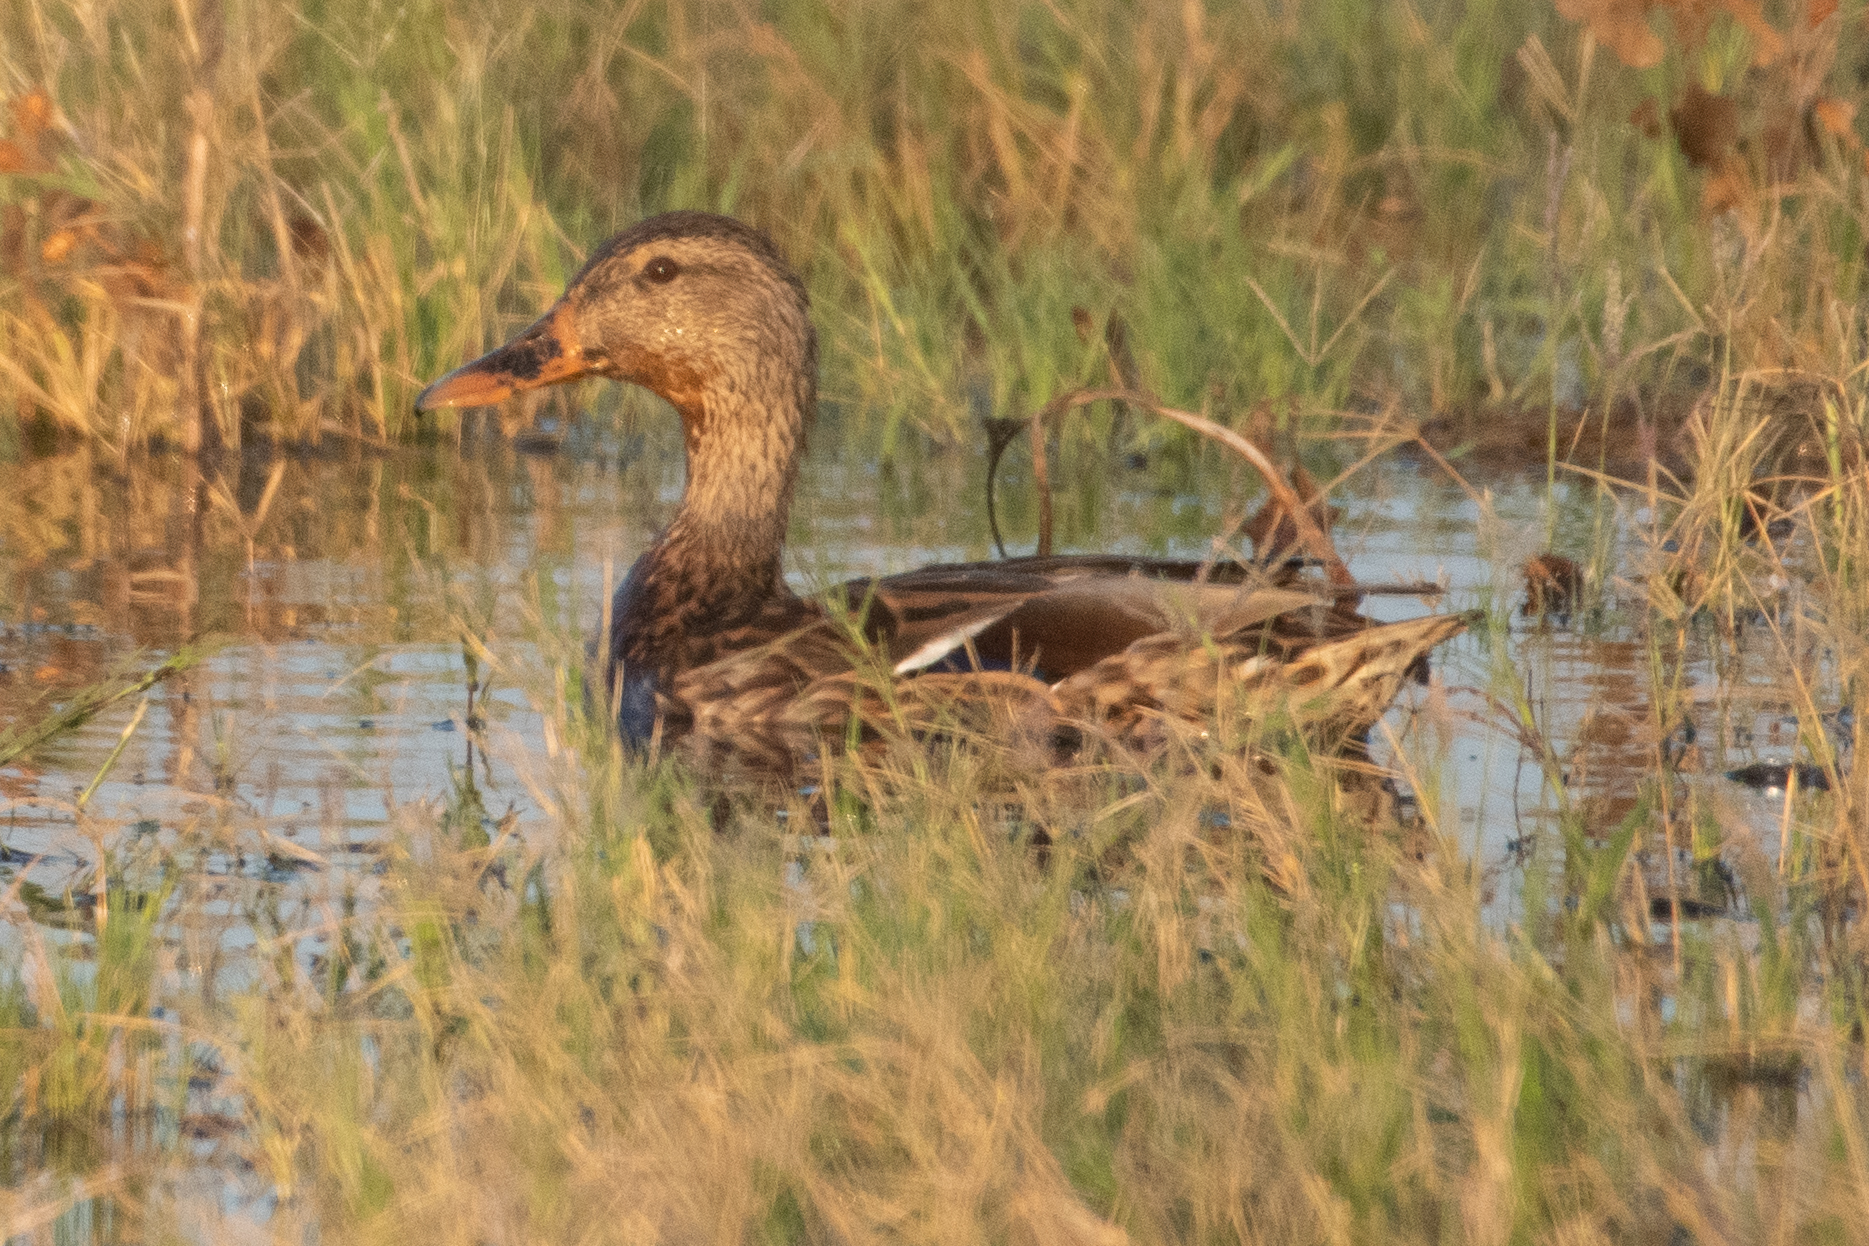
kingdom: Animalia
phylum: Chordata
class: Aves
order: Anseriformes
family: Anatidae
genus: Anas
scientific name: Anas platyrhynchos
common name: Mallard
